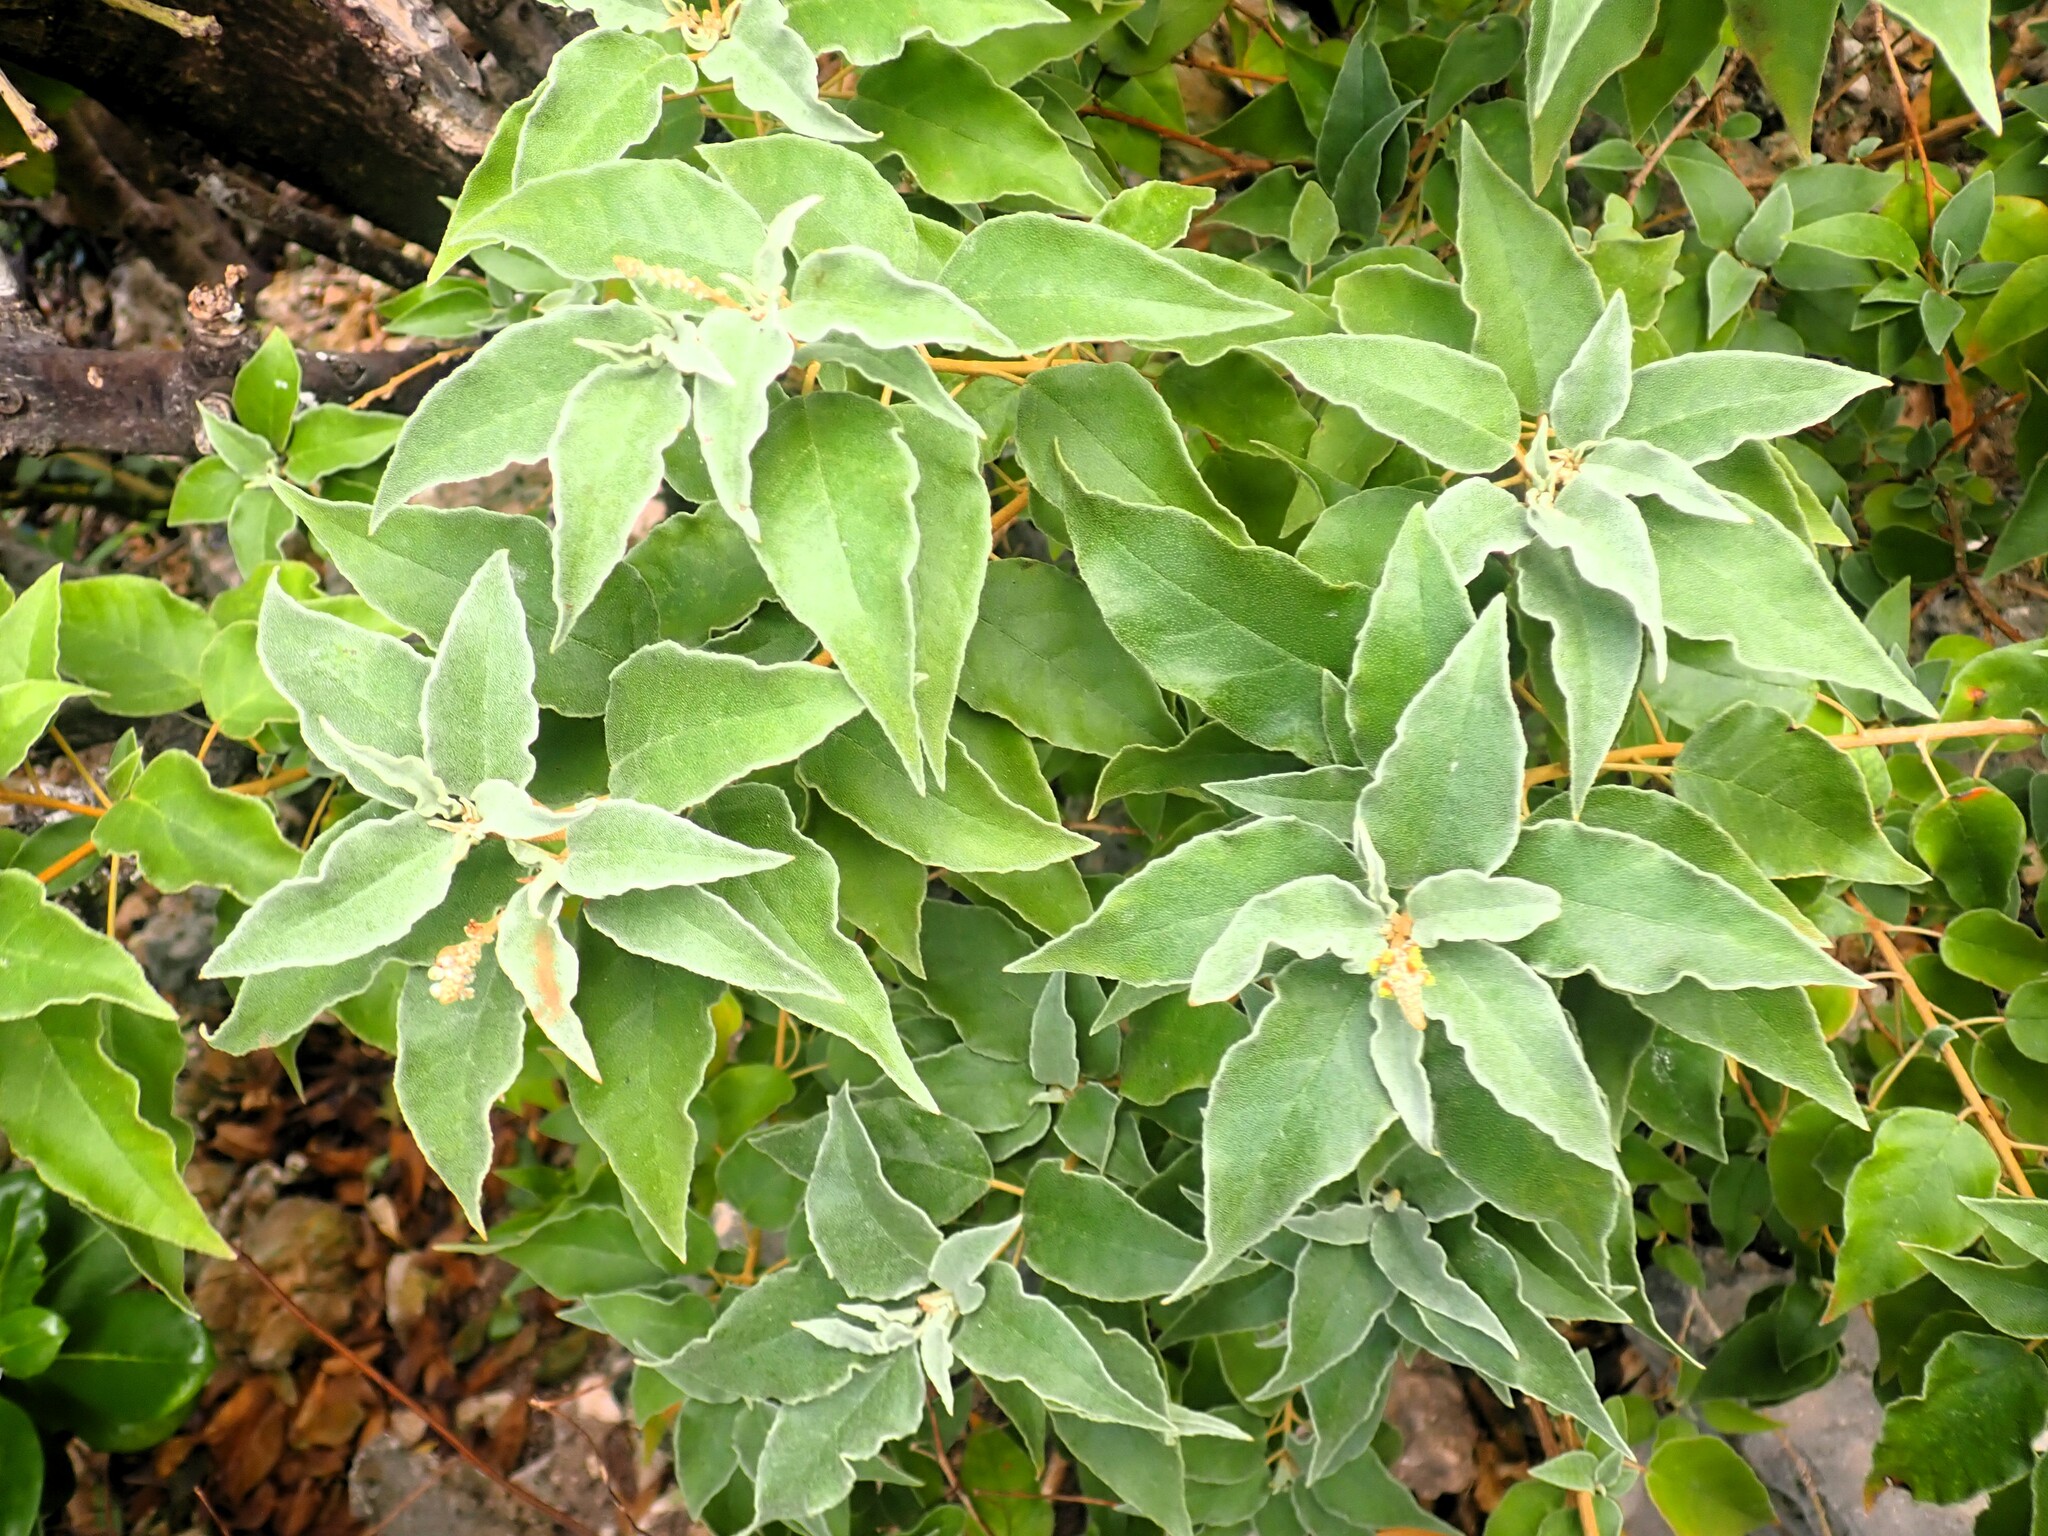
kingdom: Plantae
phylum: Tracheophyta
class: Magnoliopsida
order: Malpighiales
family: Euphorbiaceae
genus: Croton
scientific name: Croton flavens
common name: Yellow balsam
